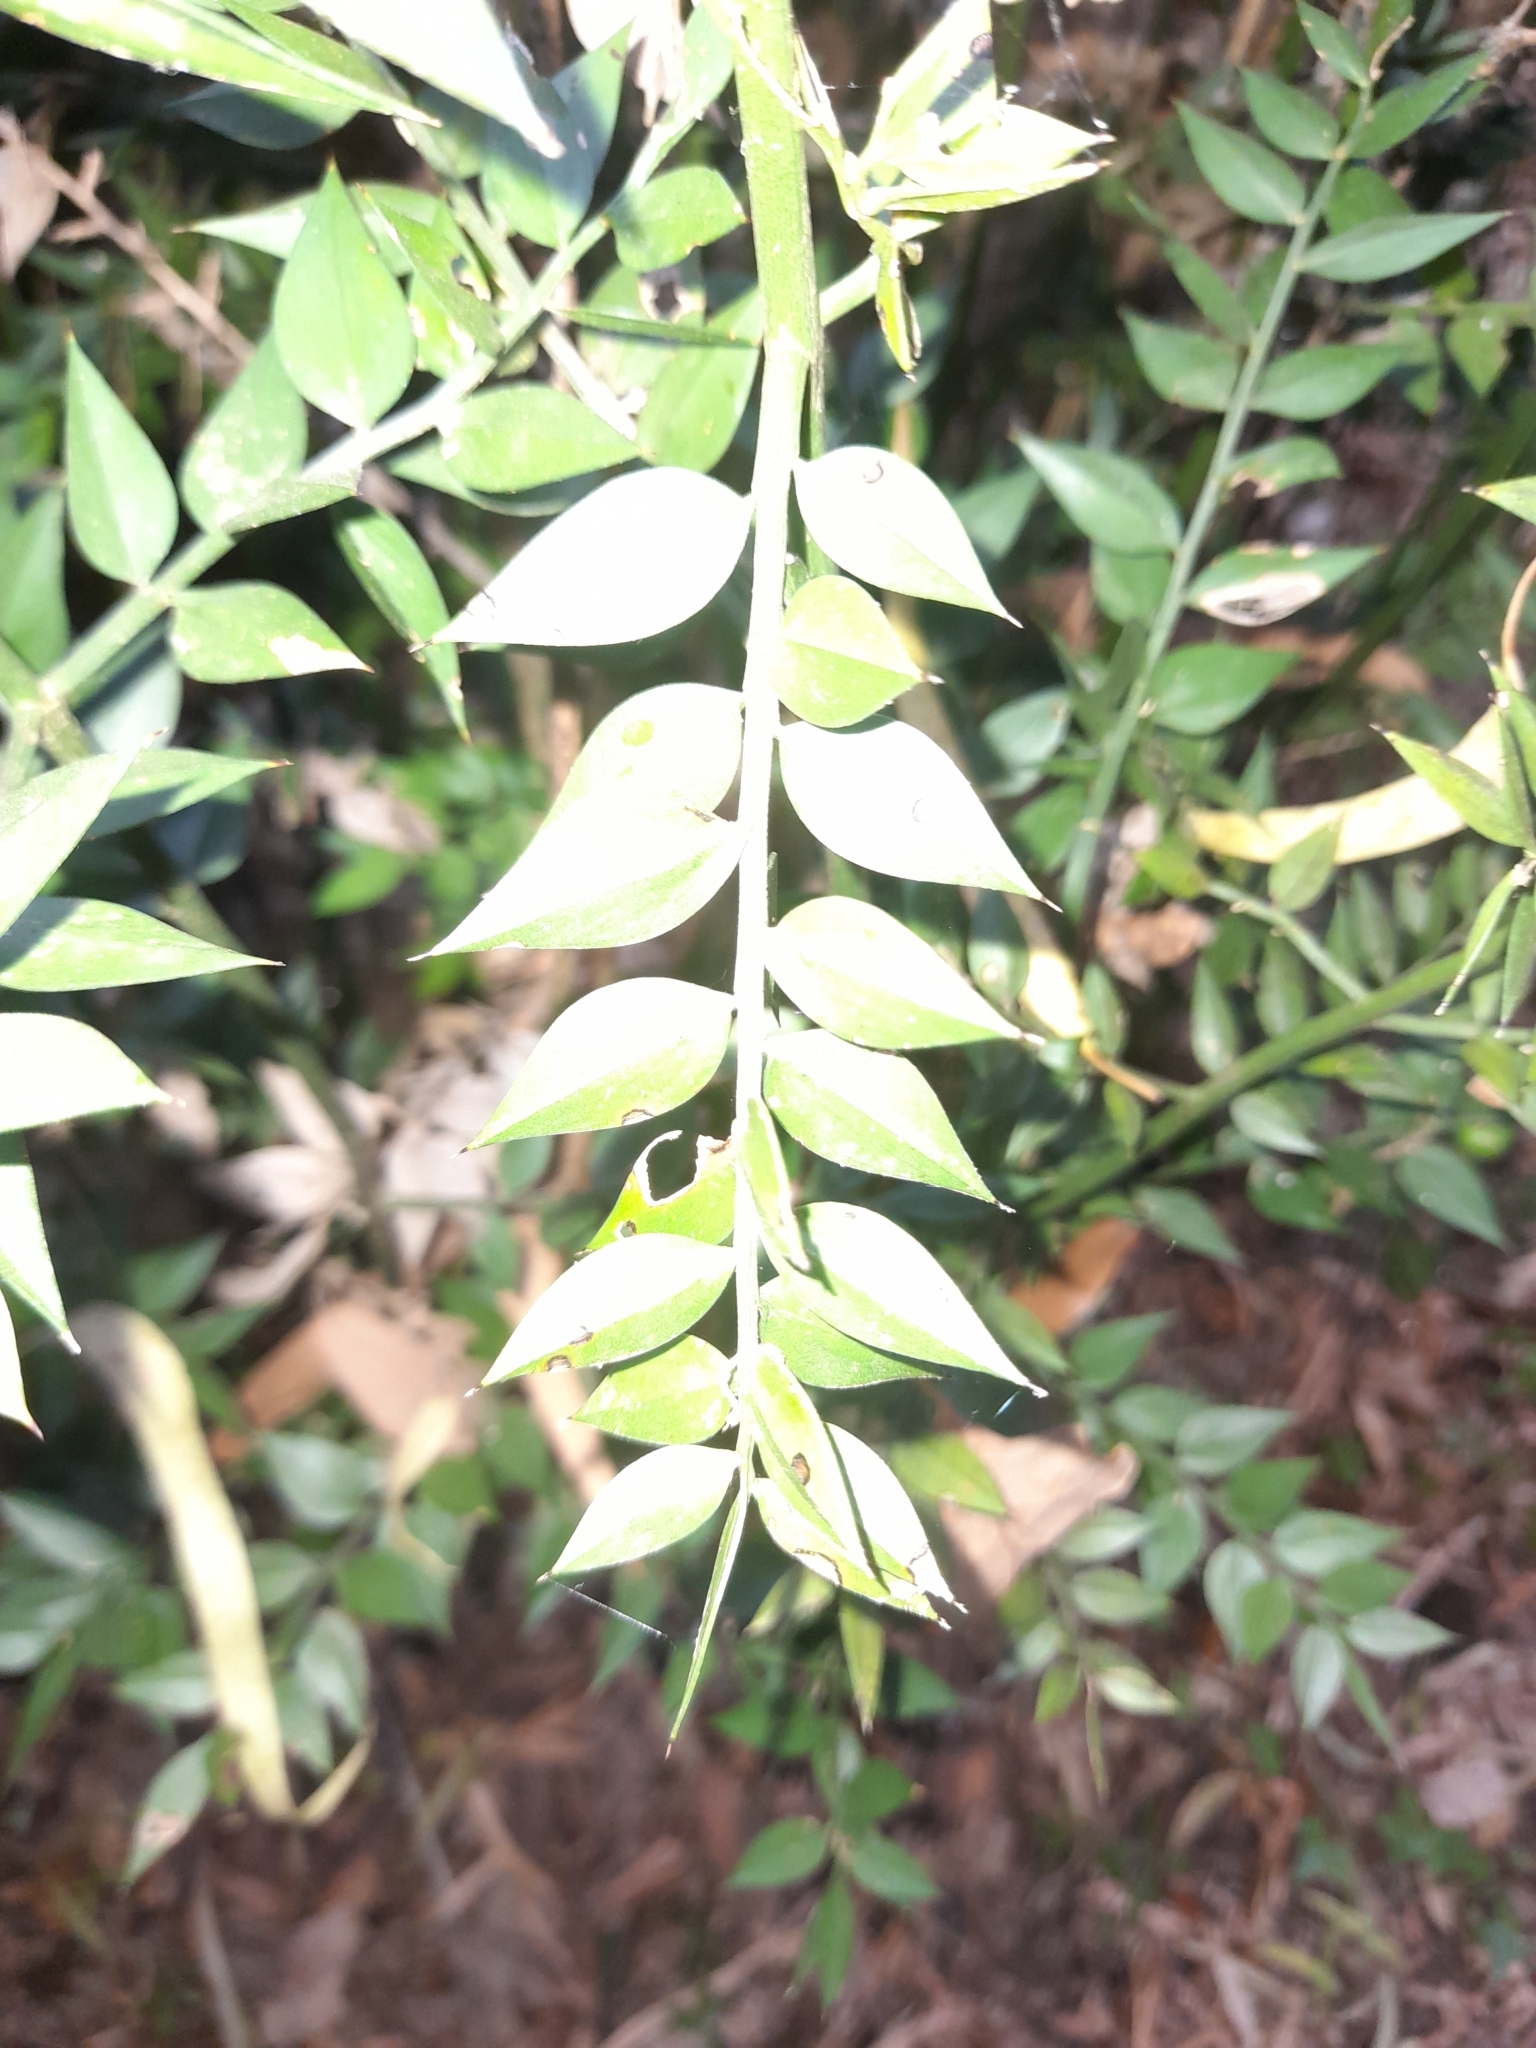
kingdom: Plantae
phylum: Tracheophyta
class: Liliopsida
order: Asparagales
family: Asparagaceae
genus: Ruscus
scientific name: Ruscus aculeatus
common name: Butcher's-broom
